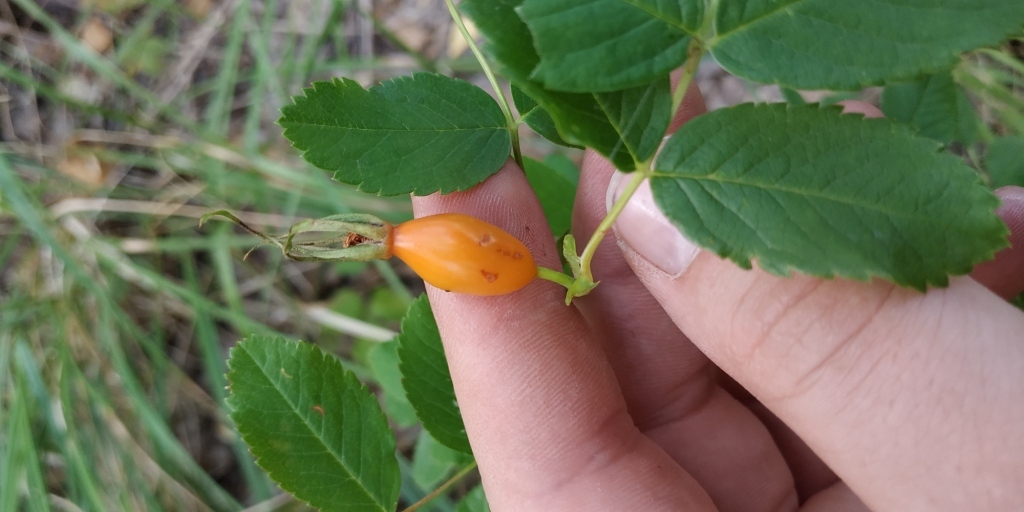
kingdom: Plantae
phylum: Tracheophyta
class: Magnoliopsida
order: Rosales
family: Rosaceae
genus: Rosa
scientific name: Rosa
